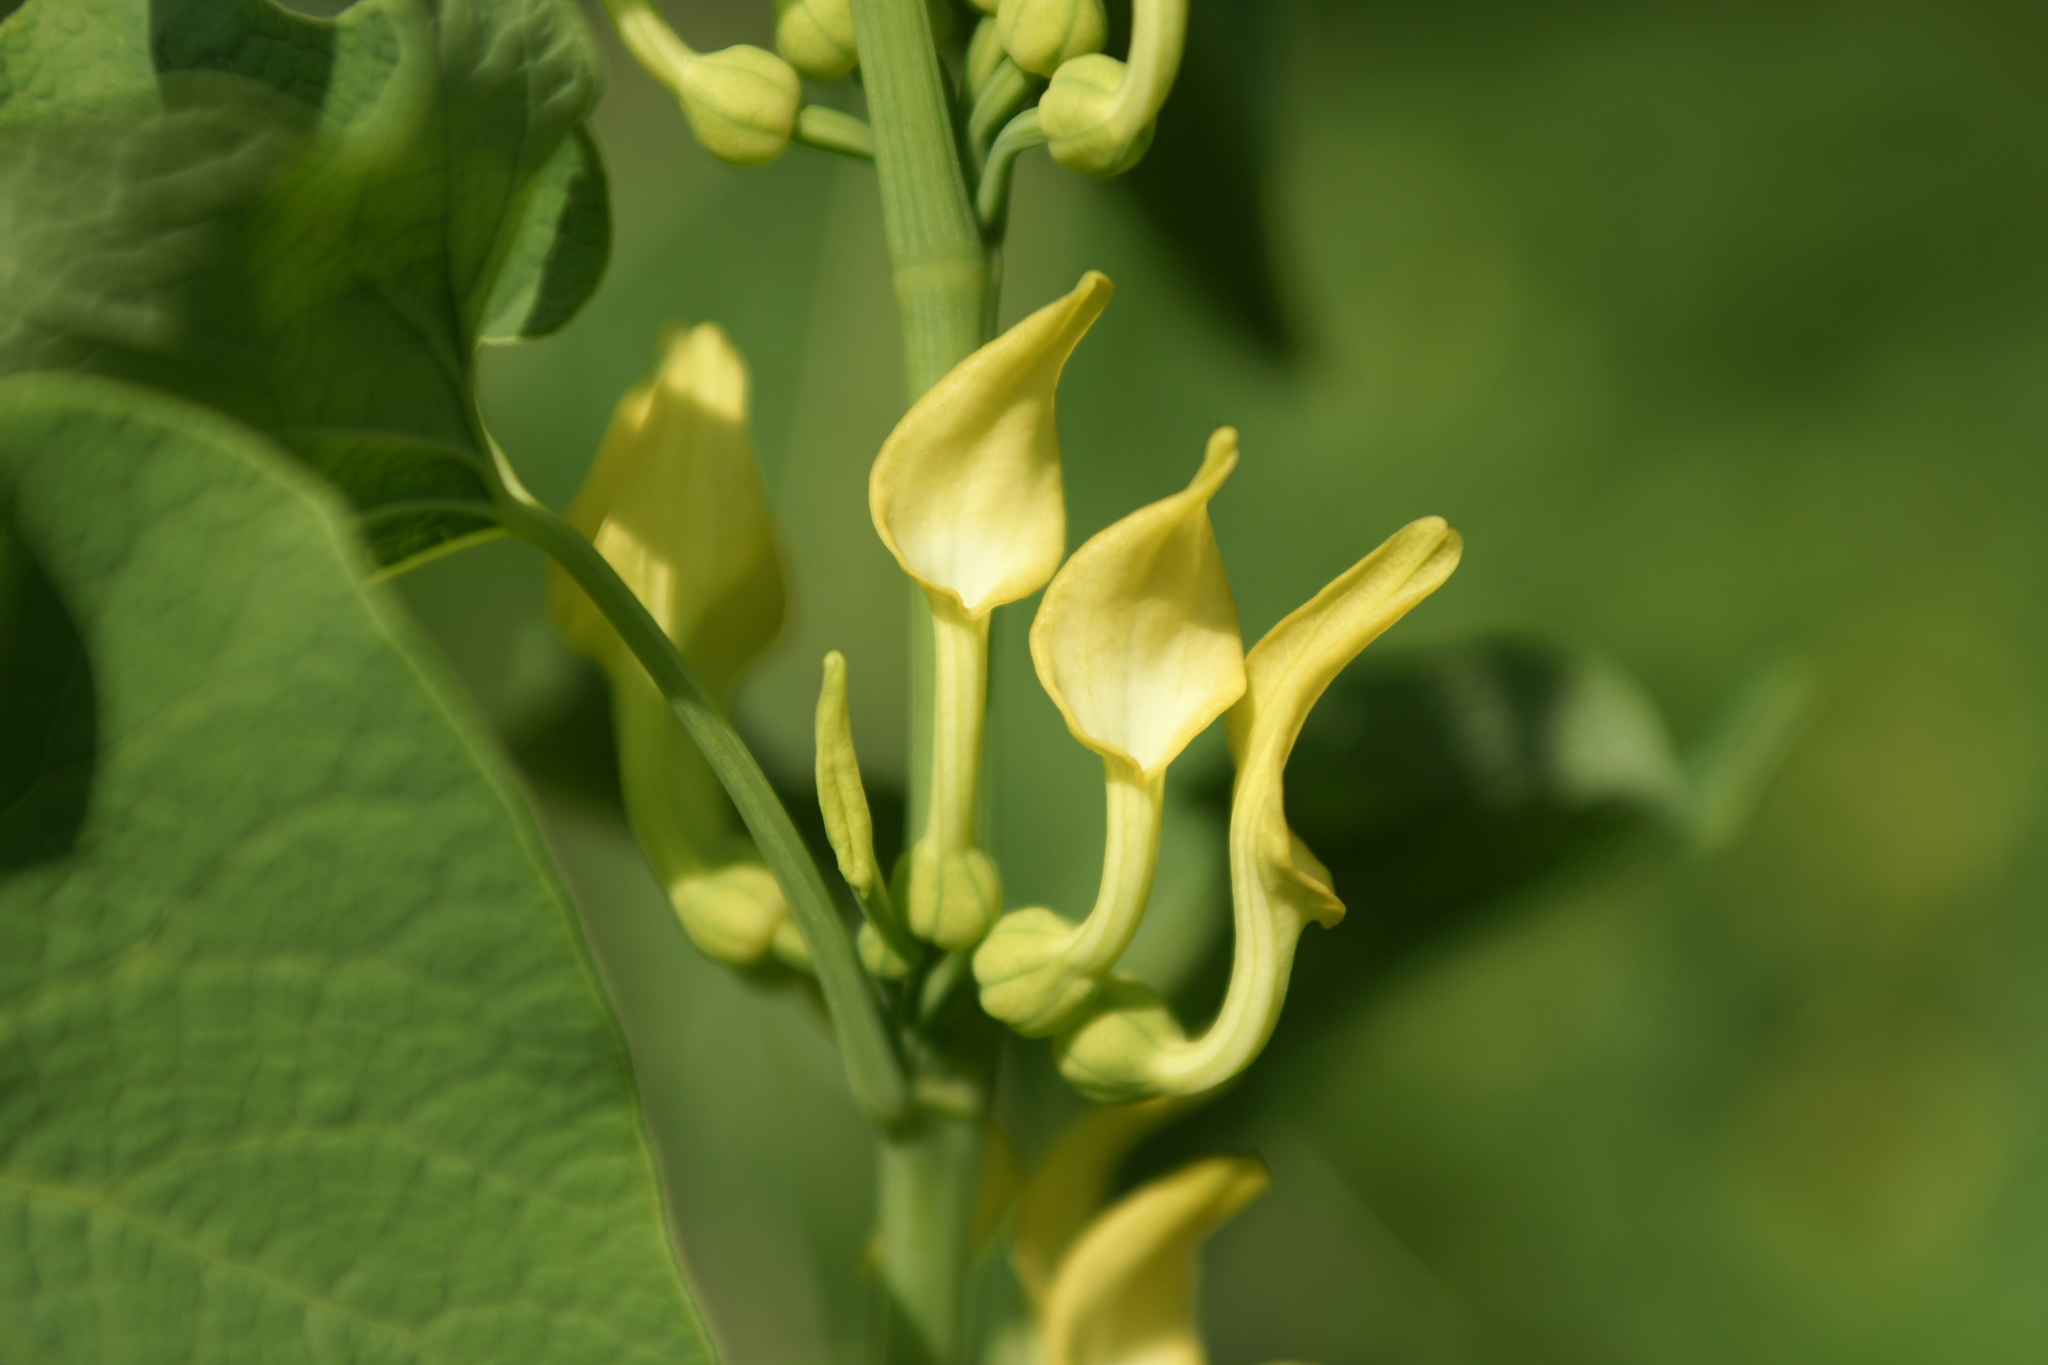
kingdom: Plantae
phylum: Tracheophyta
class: Magnoliopsida
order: Piperales
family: Aristolochiaceae
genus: Aristolochia
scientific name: Aristolochia clematitis
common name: Birthwort
